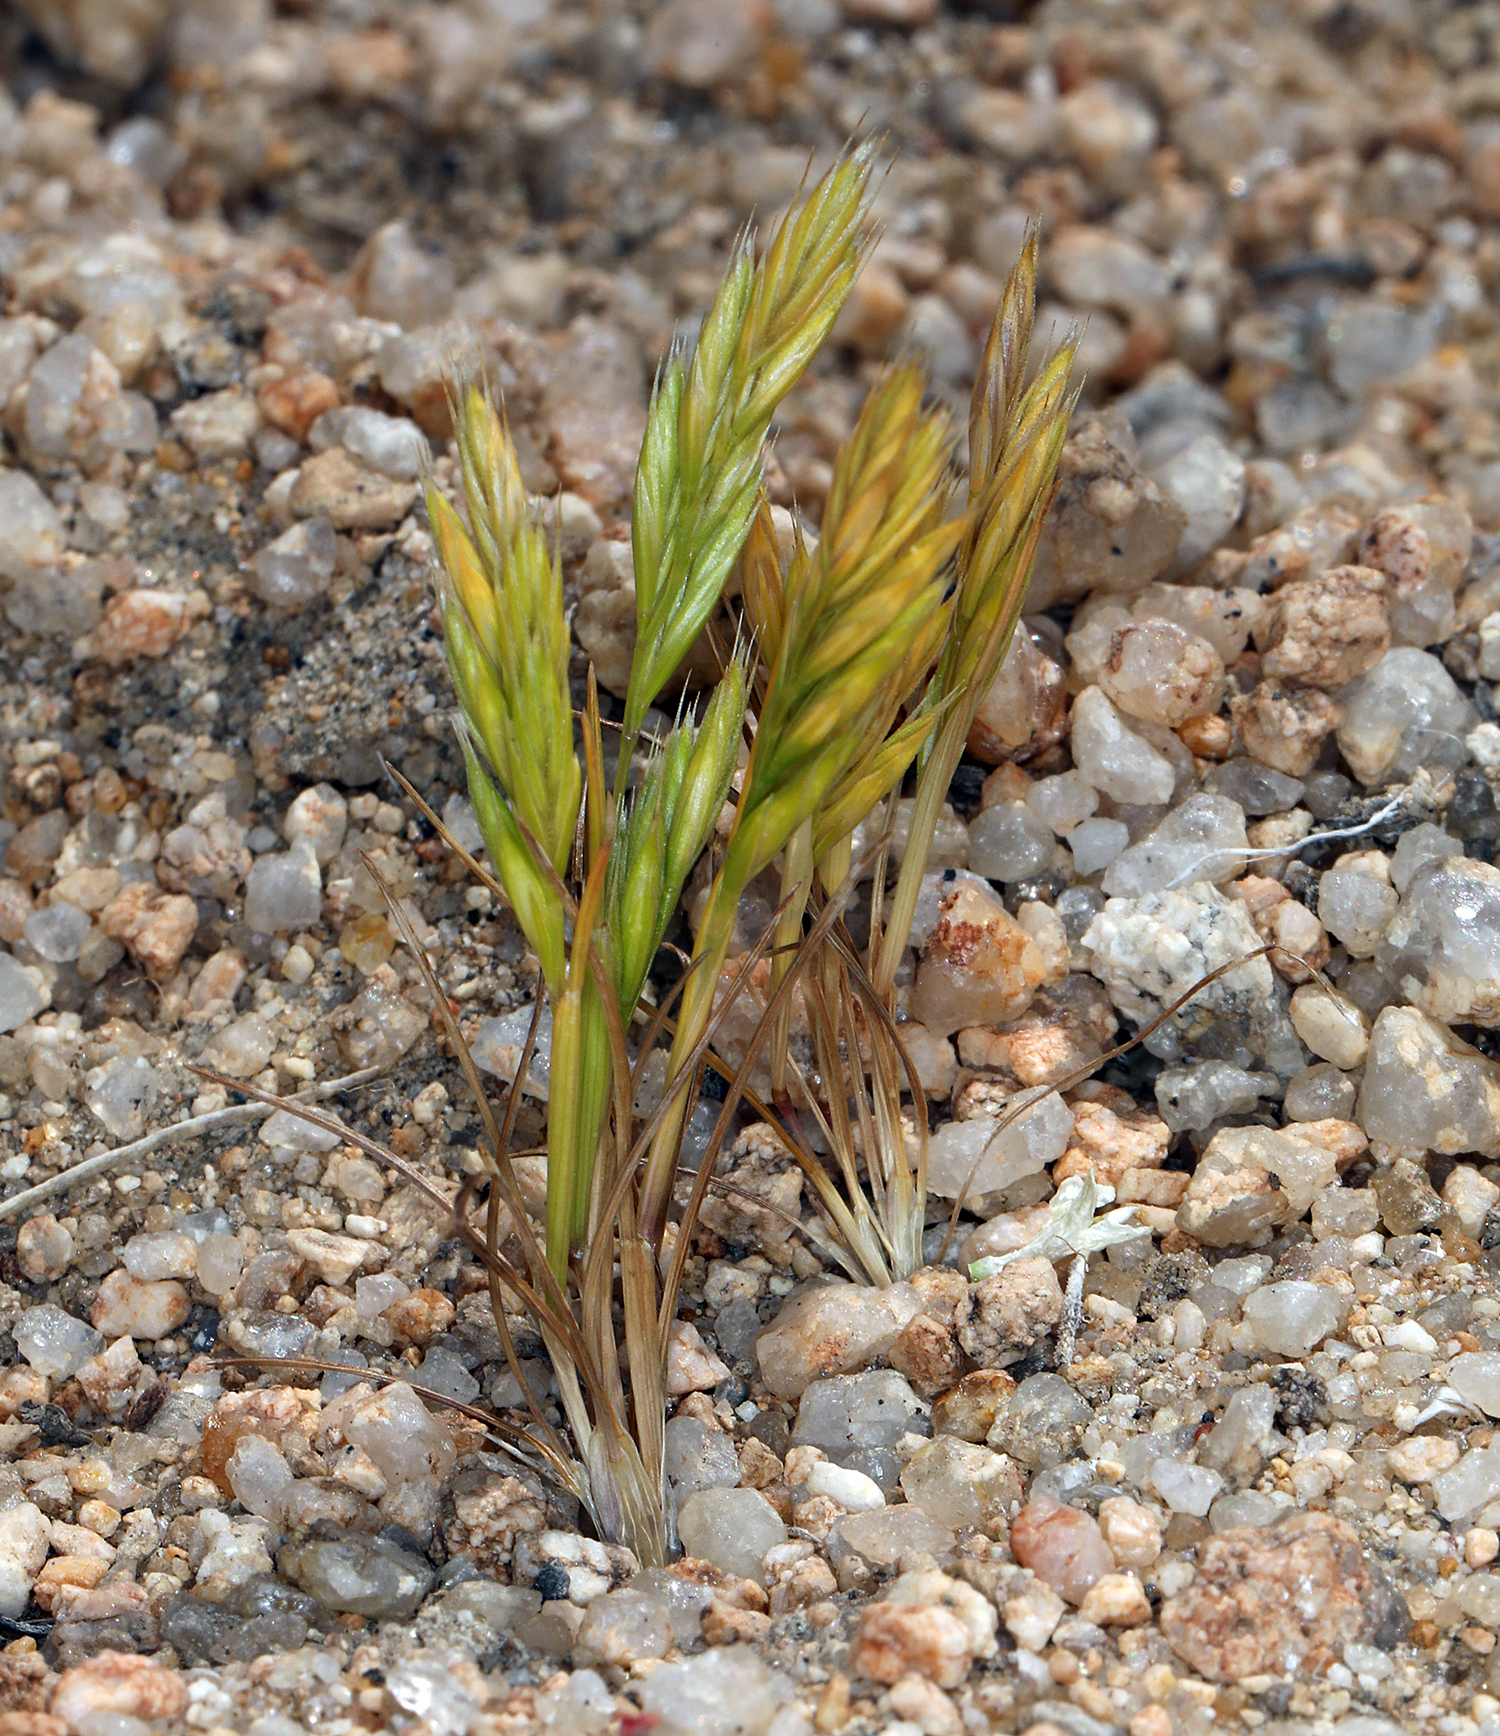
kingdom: Plantae
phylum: Tracheophyta
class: Liliopsida
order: Poales
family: Poaceae
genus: Festuca
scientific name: Festuca octoflora
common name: Sixweeks grass
